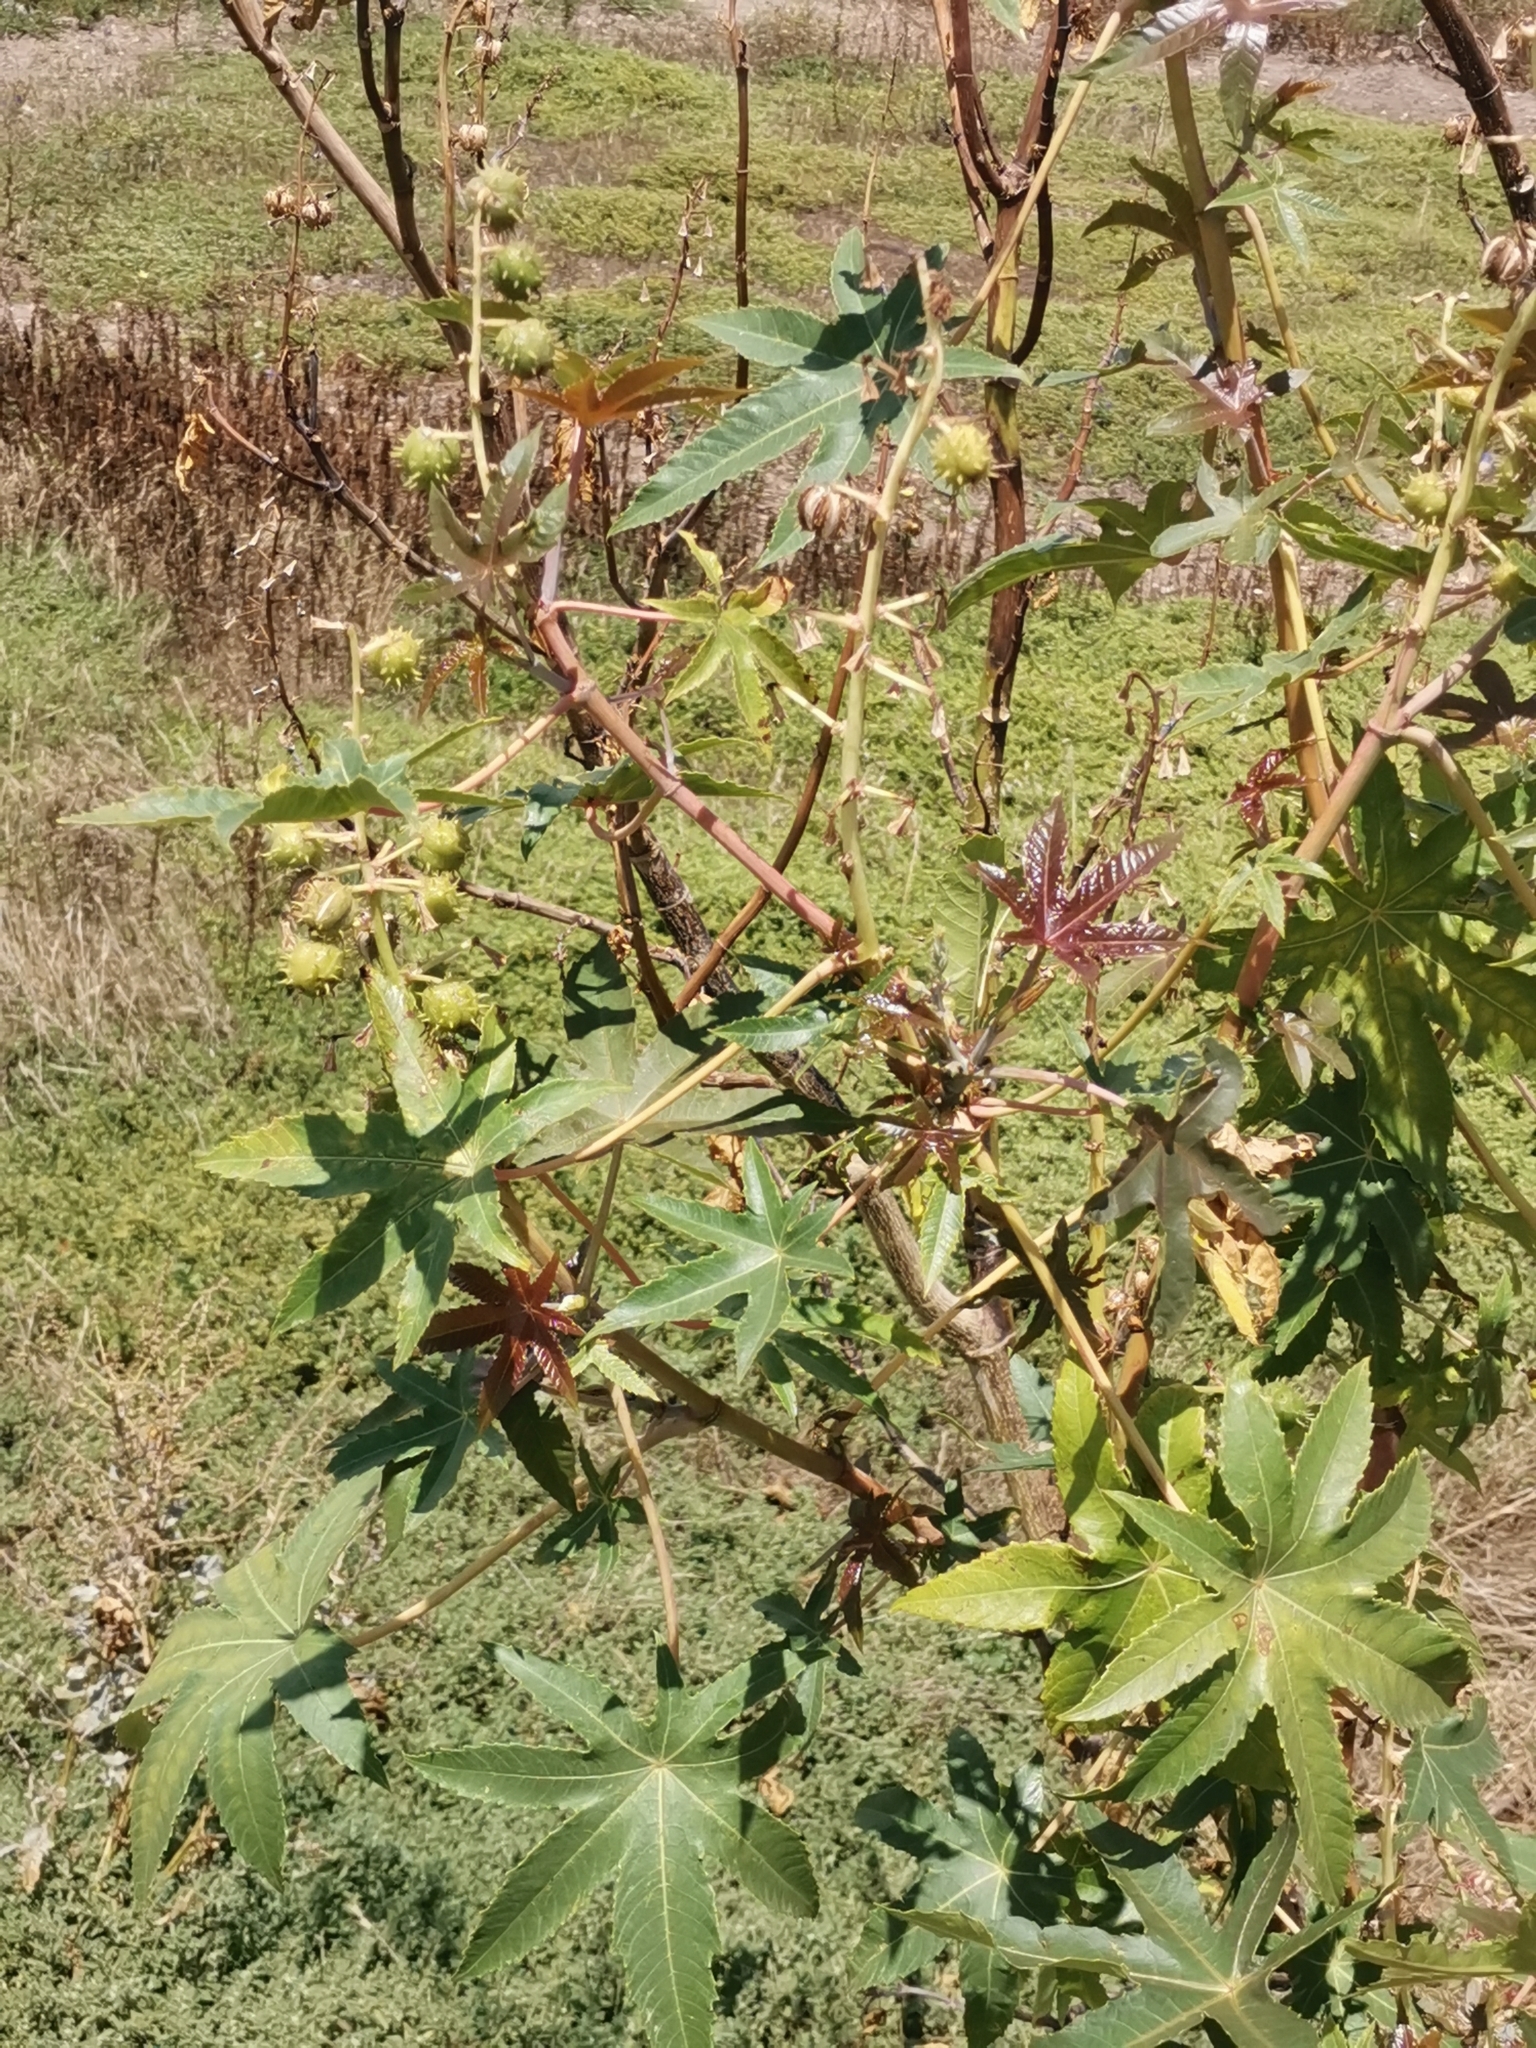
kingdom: Plantae
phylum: Tracheophyta
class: Magnoliopsida
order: Malpighiales
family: Euphorbiaceae
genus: Ricinus
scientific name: Ricinus communis
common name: Castor-oil-plant
